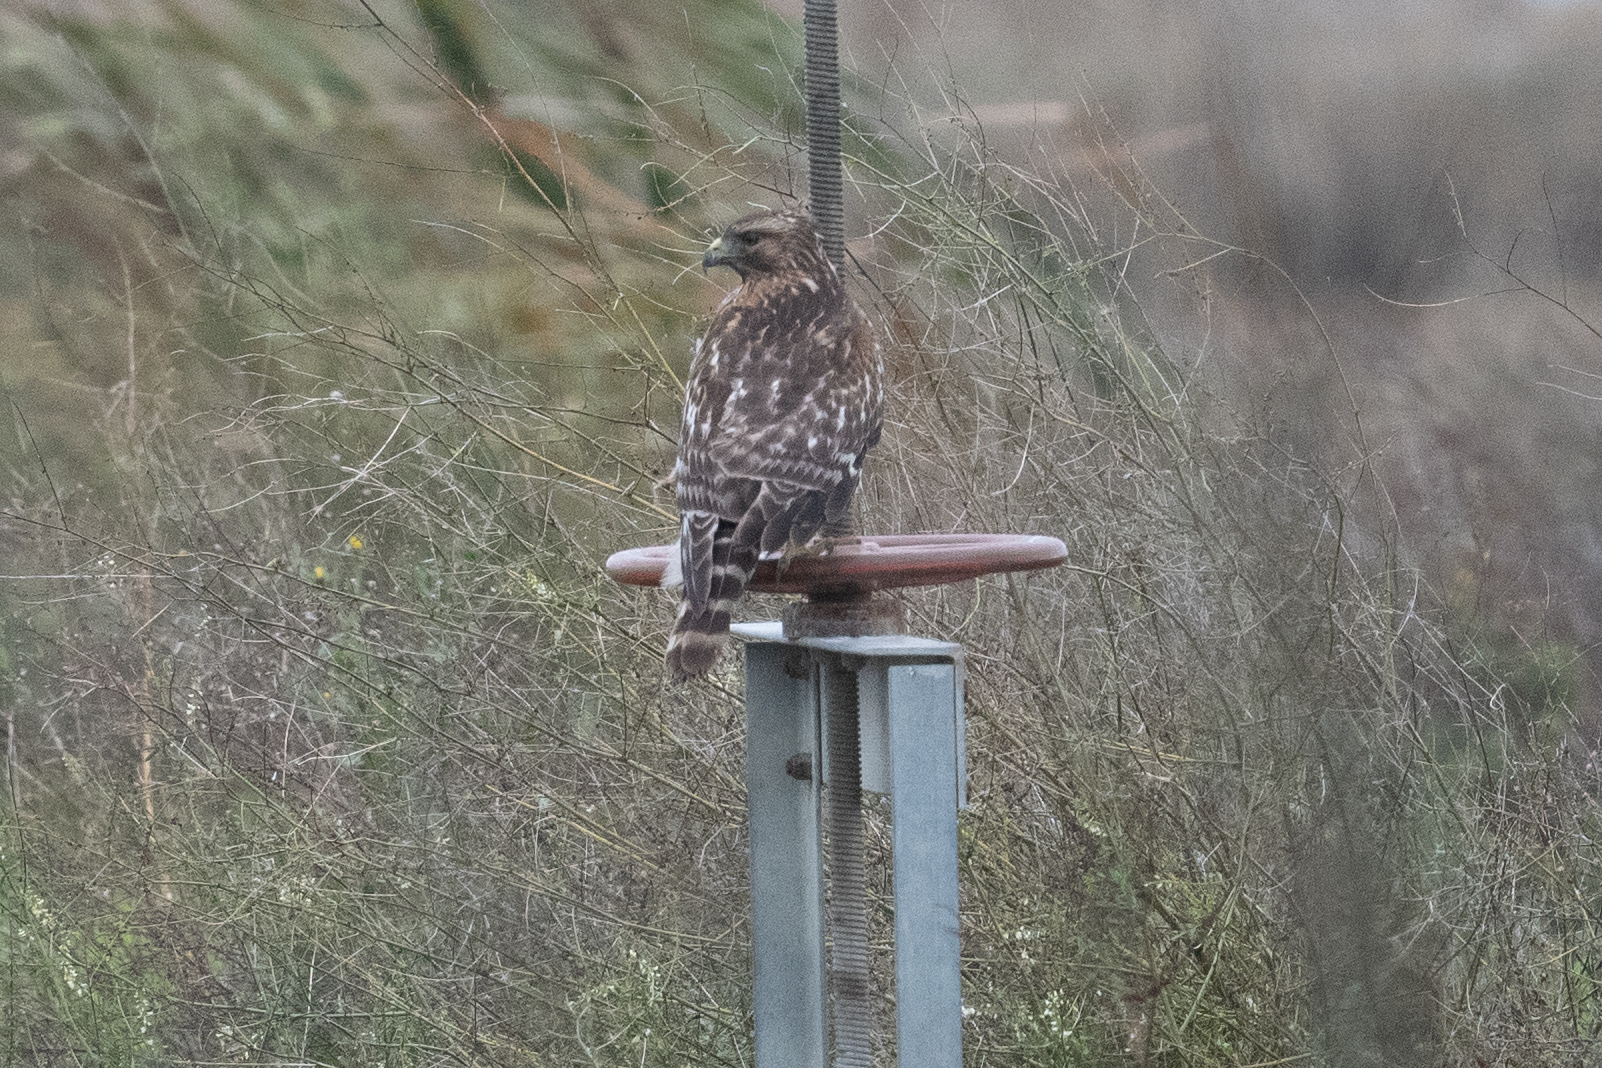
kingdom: Animalia
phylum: Chordata
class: Aves
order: Accipitriformes
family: Accipitridae
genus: Buteo
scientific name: Buteo lineatus
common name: Red-shouldered hawk
